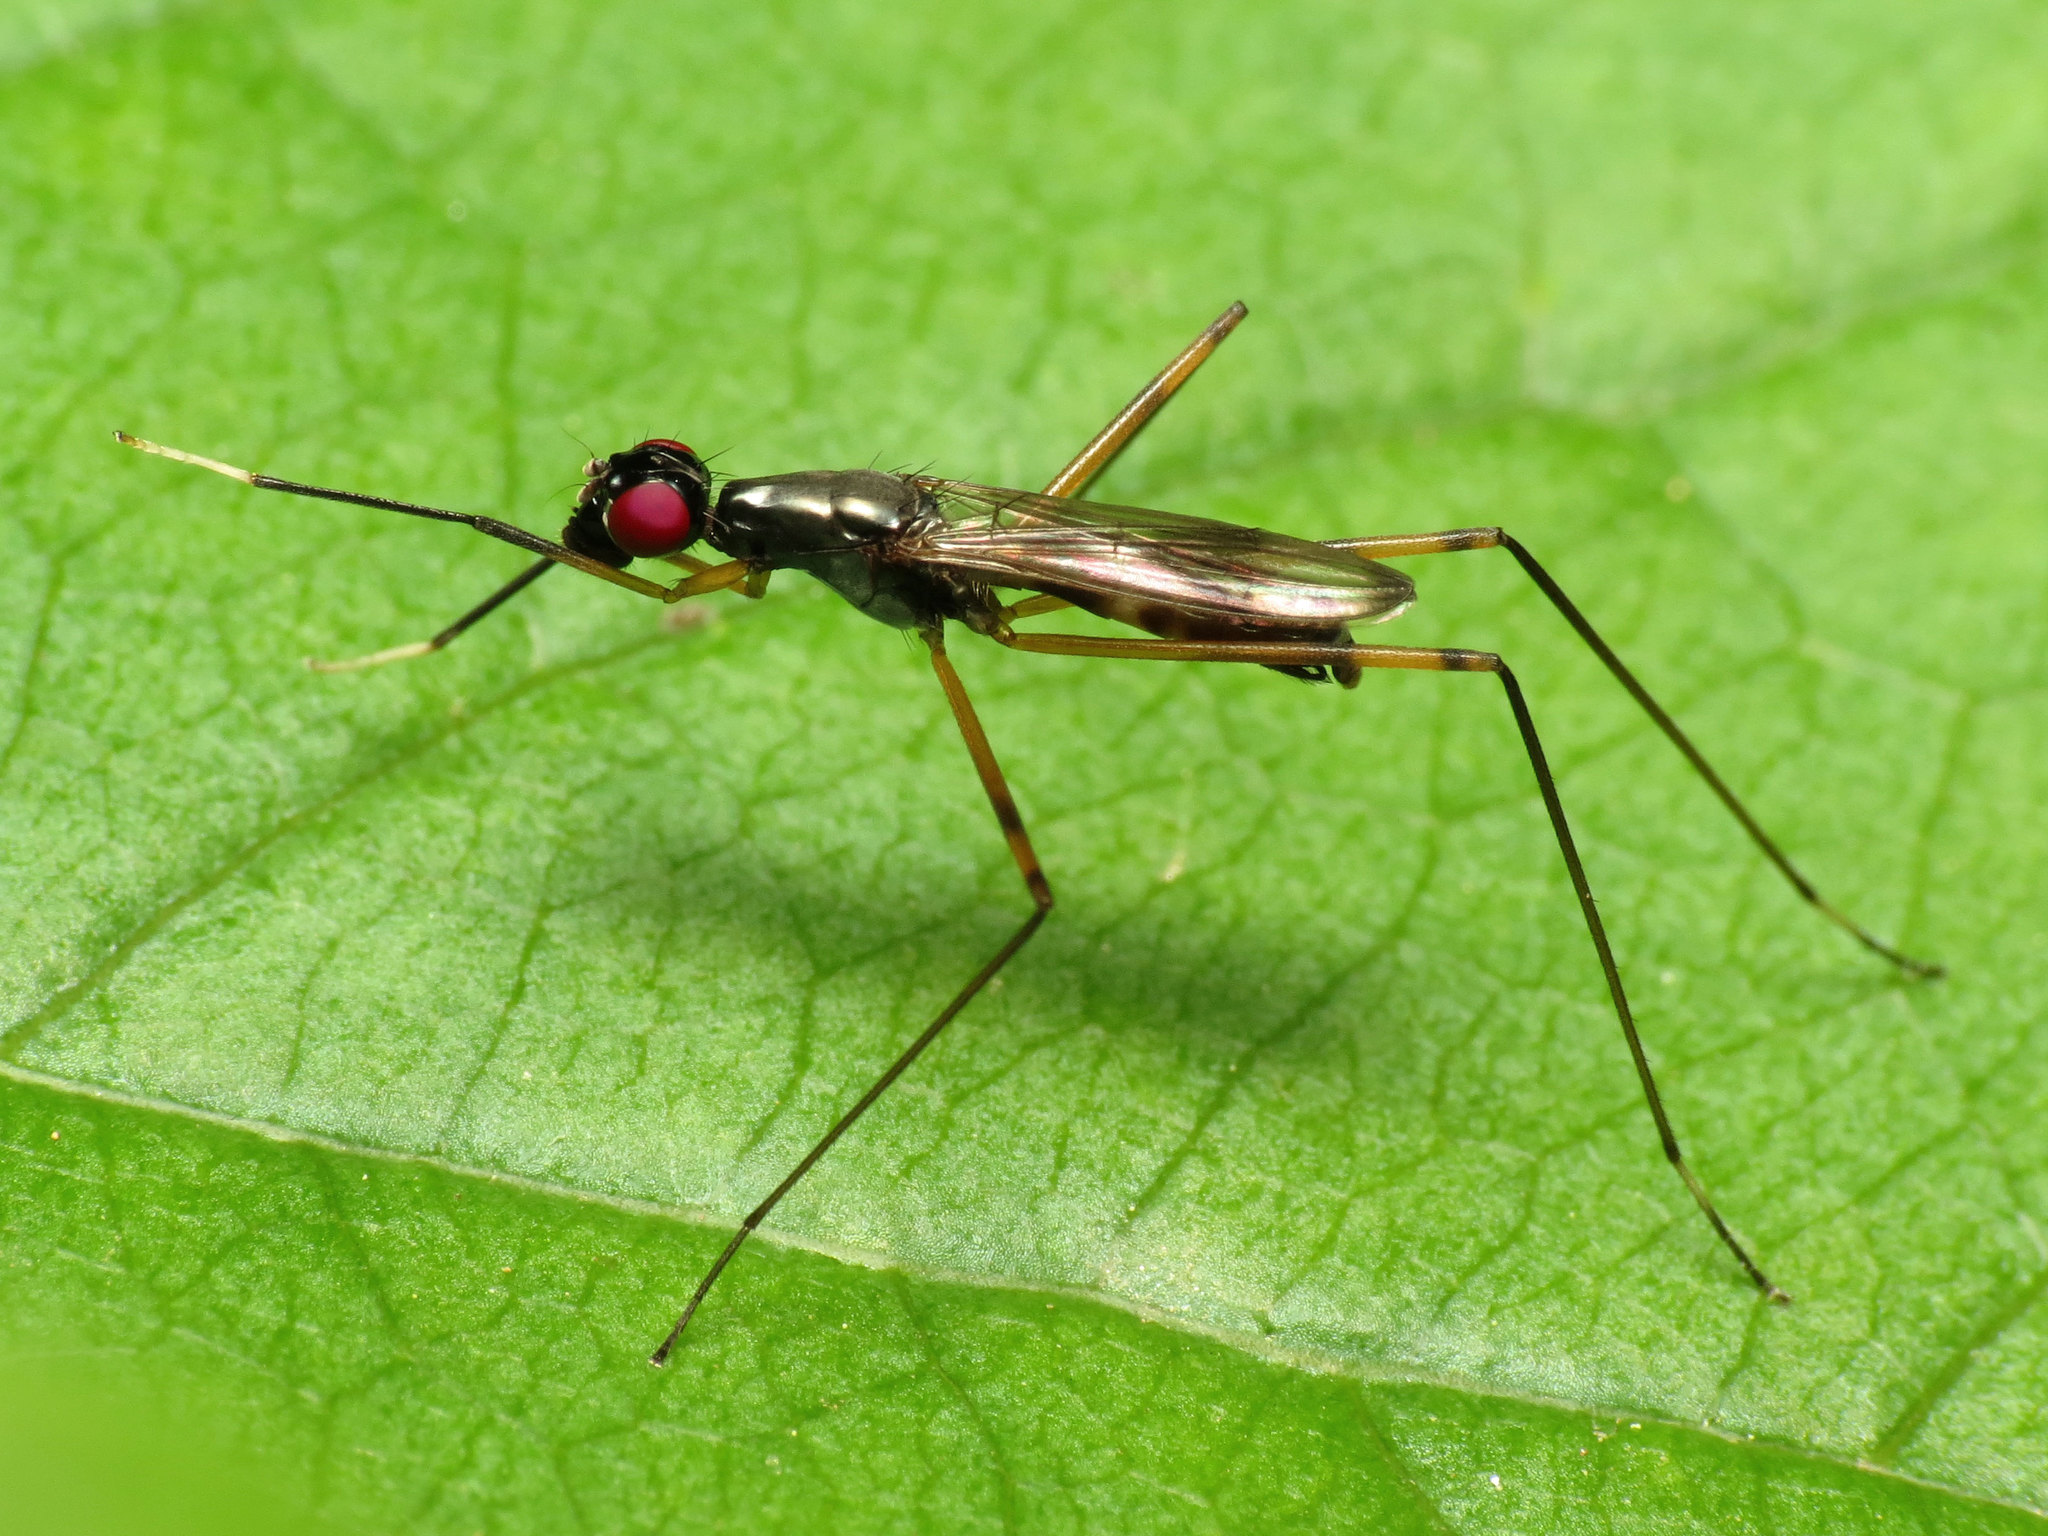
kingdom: Animalia
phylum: Arthropoda
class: Insecta
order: Diptera
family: Micropezidae
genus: Rainieria
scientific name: Rainieria antennaepes
